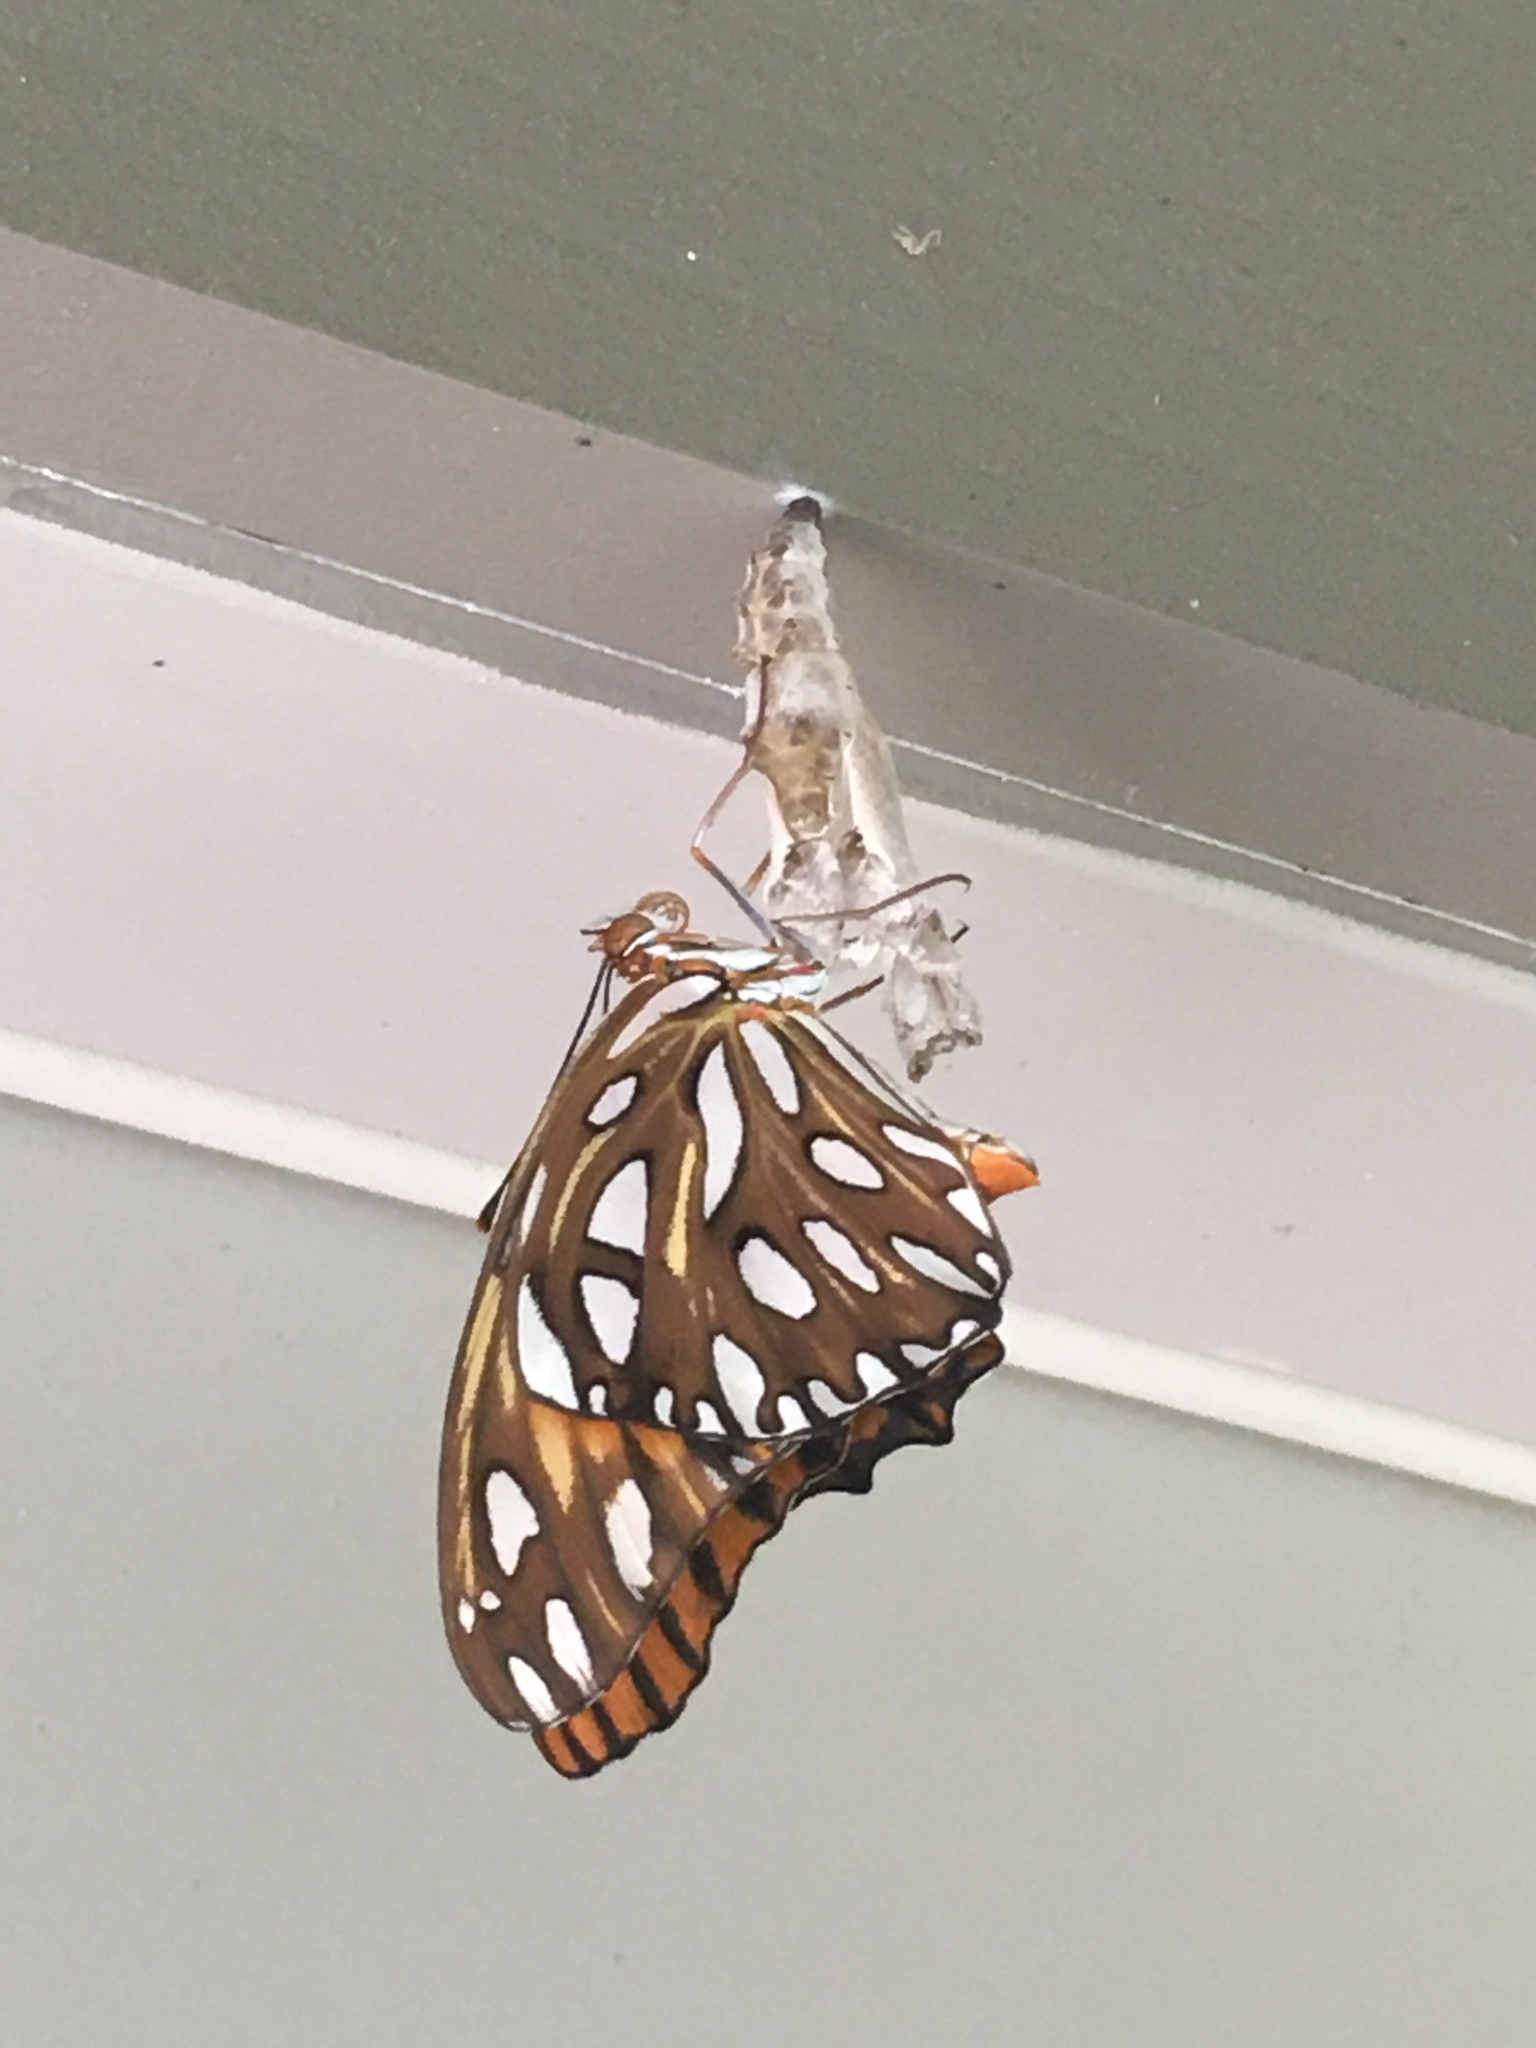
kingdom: Animalia
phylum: Arthropoda
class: Insecta
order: Lepidoptera
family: Nymphalidae
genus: Dione
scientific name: Dione vanillae
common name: Gulf fritillary
